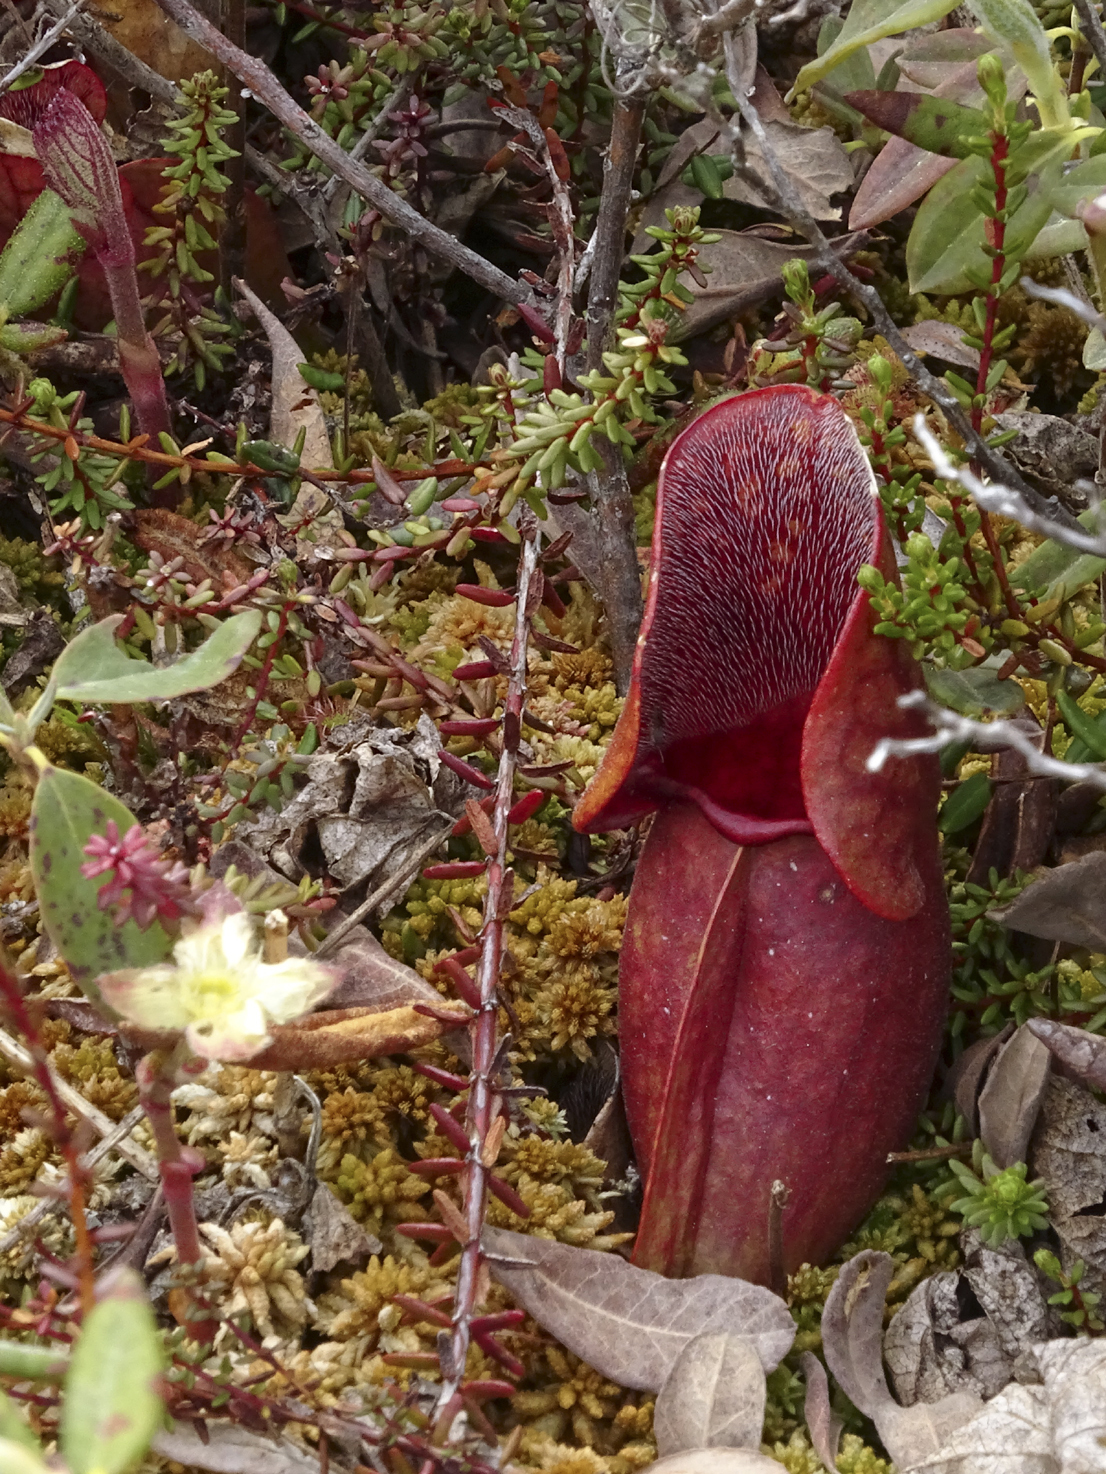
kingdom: Plantae
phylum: Tracheophyta
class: Magnoliopsida
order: Ericales
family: Sarraceniaceae
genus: Sarracenia
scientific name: Sarracenia purpurea
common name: Pitcherplant
